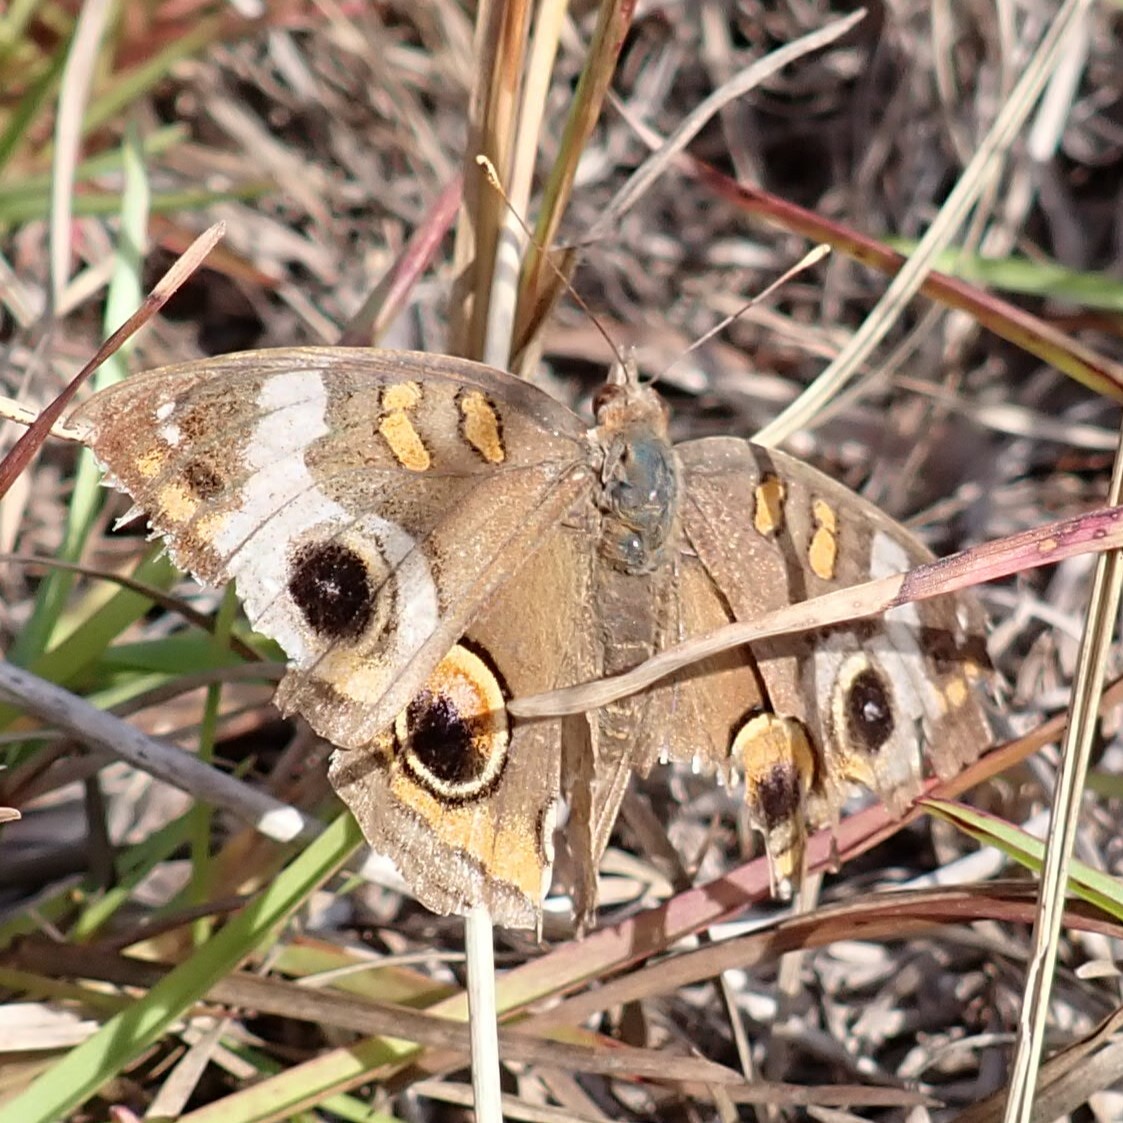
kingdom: Animalia
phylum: Arthropoda
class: Insecta
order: Lepidoptera
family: Nymphalidae
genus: Junonia
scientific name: Junonia coenia
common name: Common buckeye
